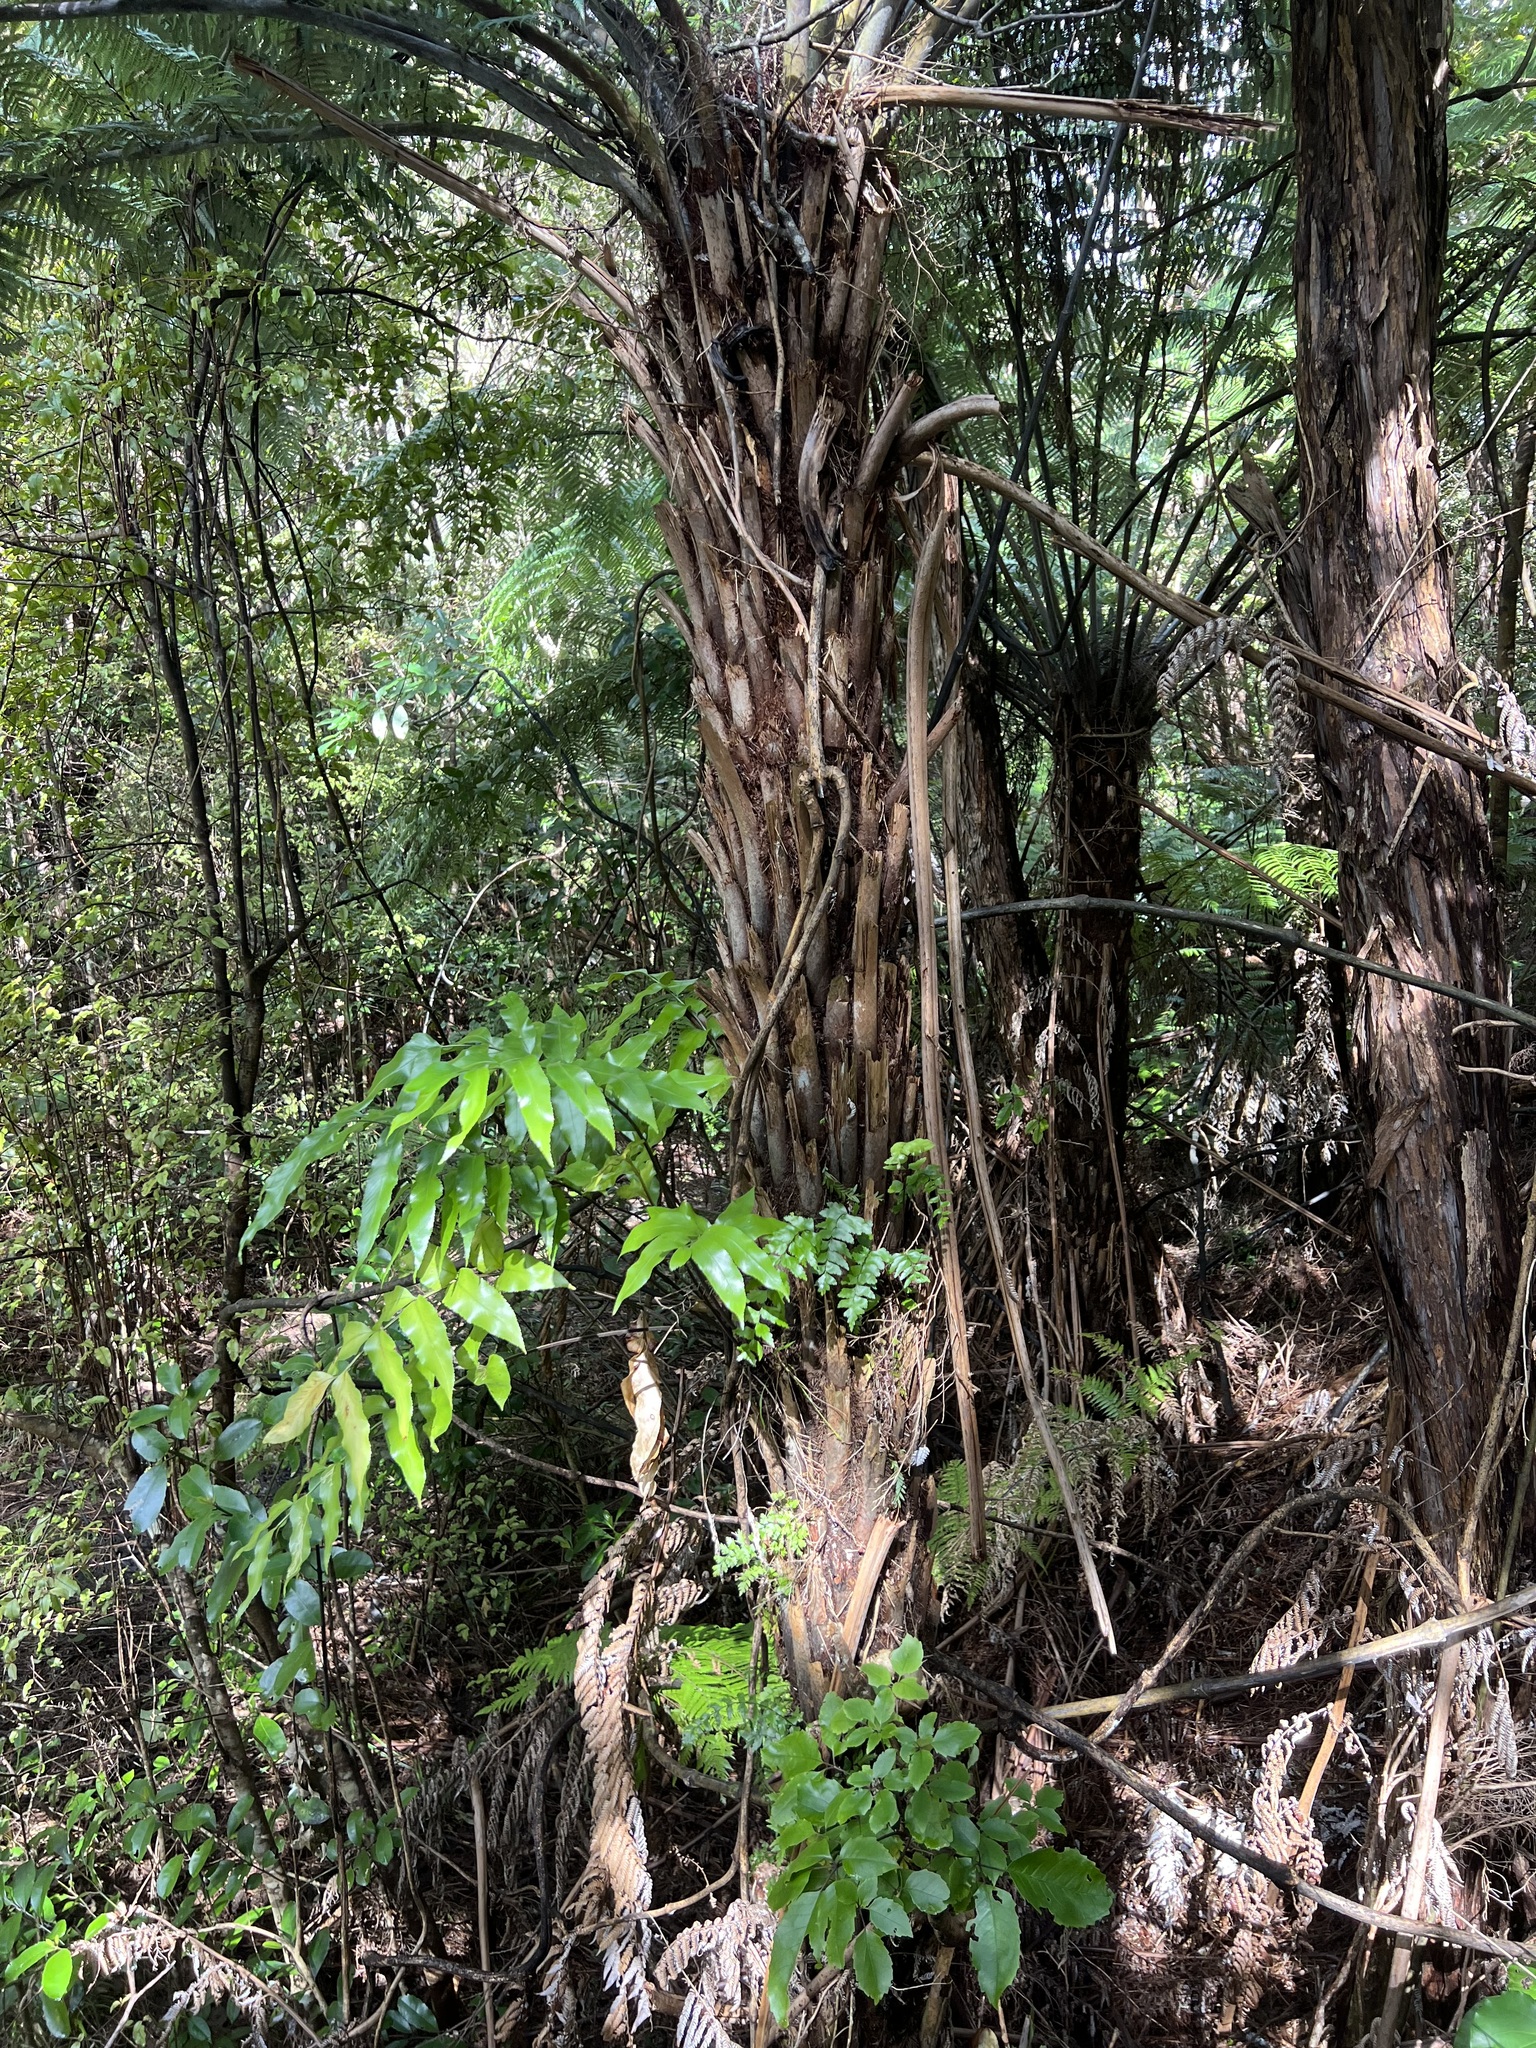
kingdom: Plantae
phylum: Tracheophyta
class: Polypodiopsida
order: Cyatheales
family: Cyatheaceae
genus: Alsophila
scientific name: Alsophila dealbata
